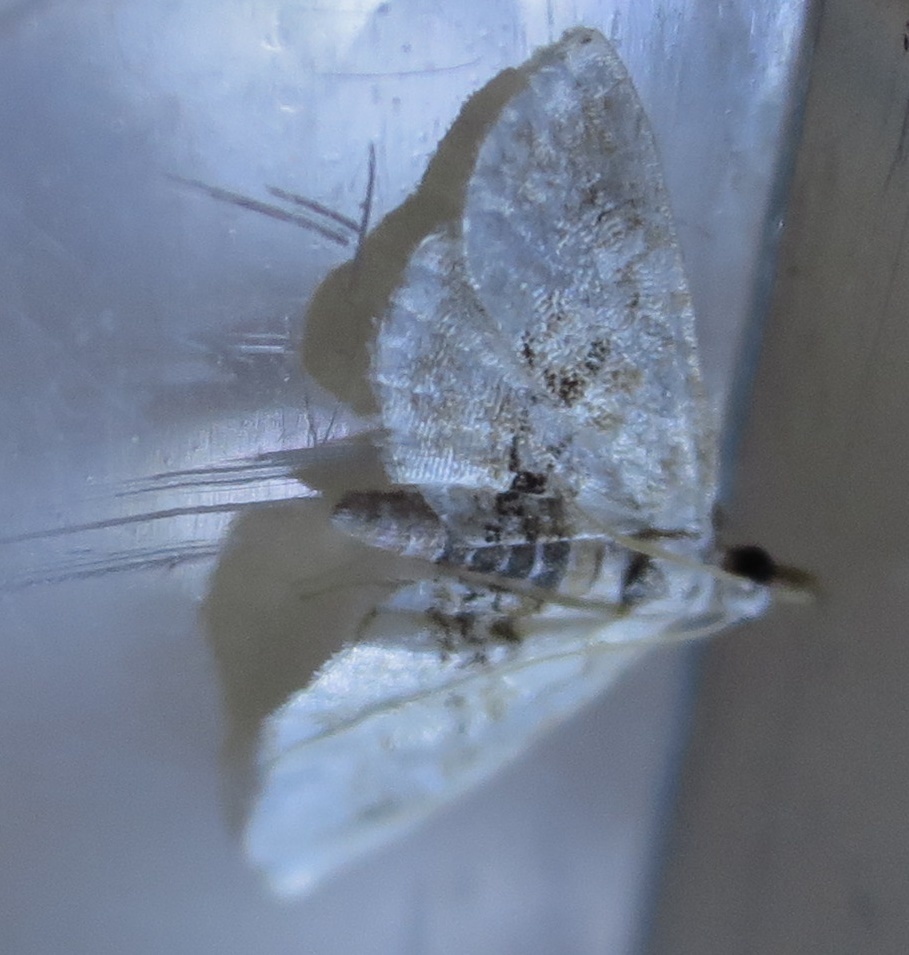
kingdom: Animalia
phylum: Arthropoda
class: Insecta
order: Lepidoptera
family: Crambidae
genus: Trichophysetis
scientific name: Trichophysetis
